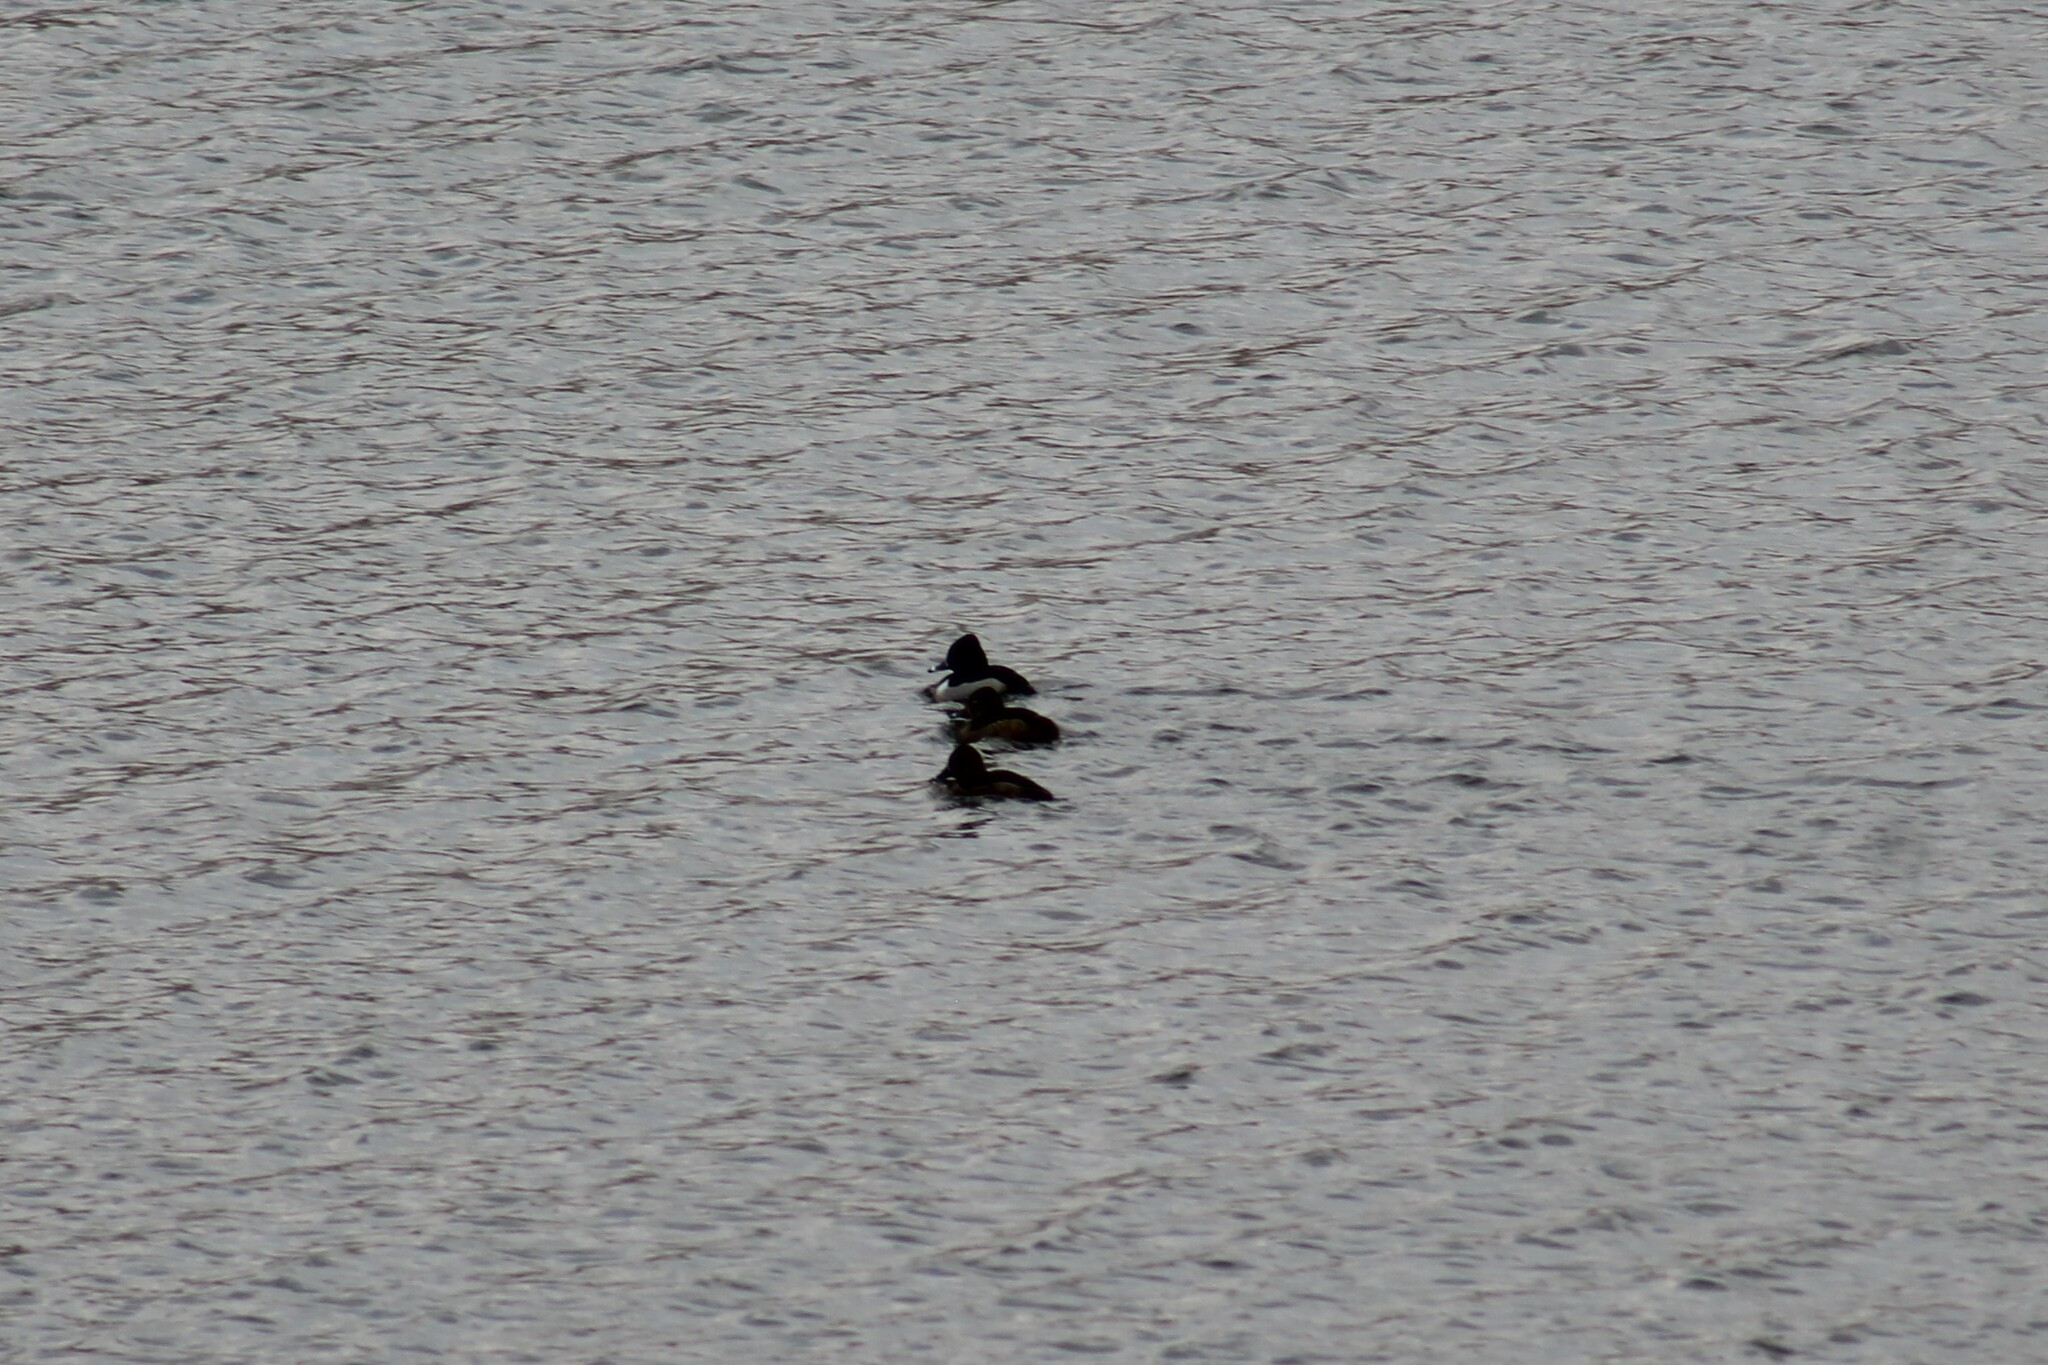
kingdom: Animalia
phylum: Chordata
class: Aves
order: Anseriformes
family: Anatidae
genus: Aythya
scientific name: Aythya collaris
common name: Ring-necked duck
